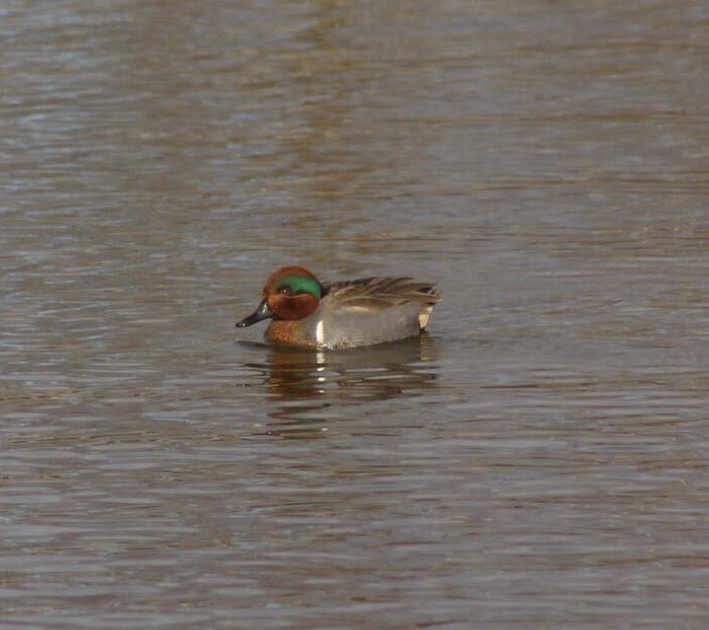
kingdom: Animalia
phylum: Chordata
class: Aves
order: Anseriformes
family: Anatidae
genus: Anas
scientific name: Anas carolinensis
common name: Green-winged teal
